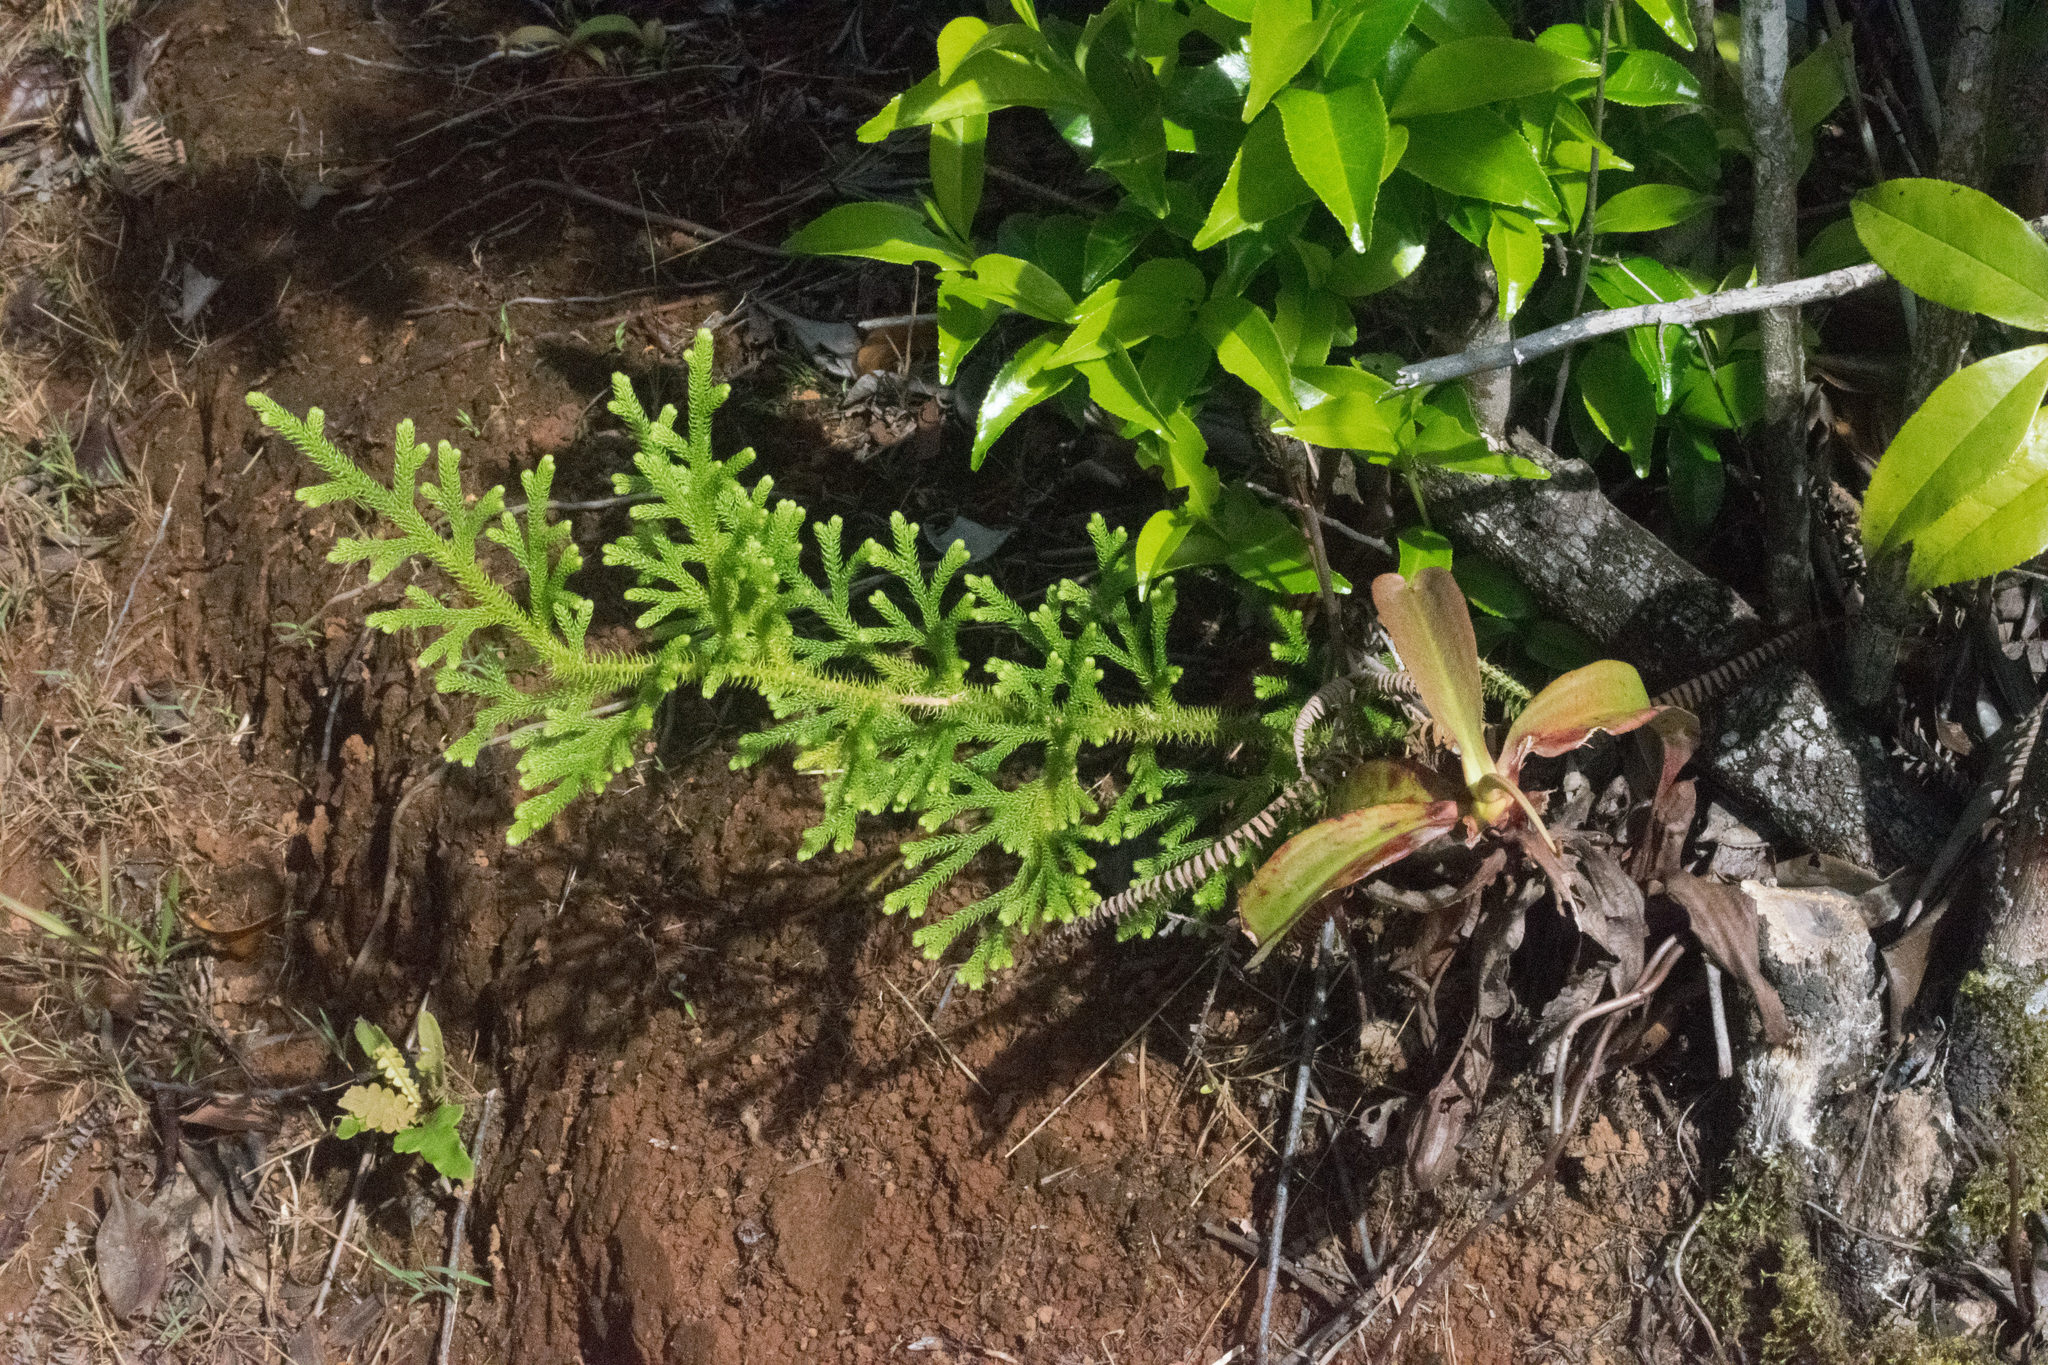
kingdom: Plantae
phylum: Tracheophyta
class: Lycopodiopsida
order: Lycopodiales
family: Lycopodiaceae
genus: Palhinhaea
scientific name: Palhinhaea cernua
